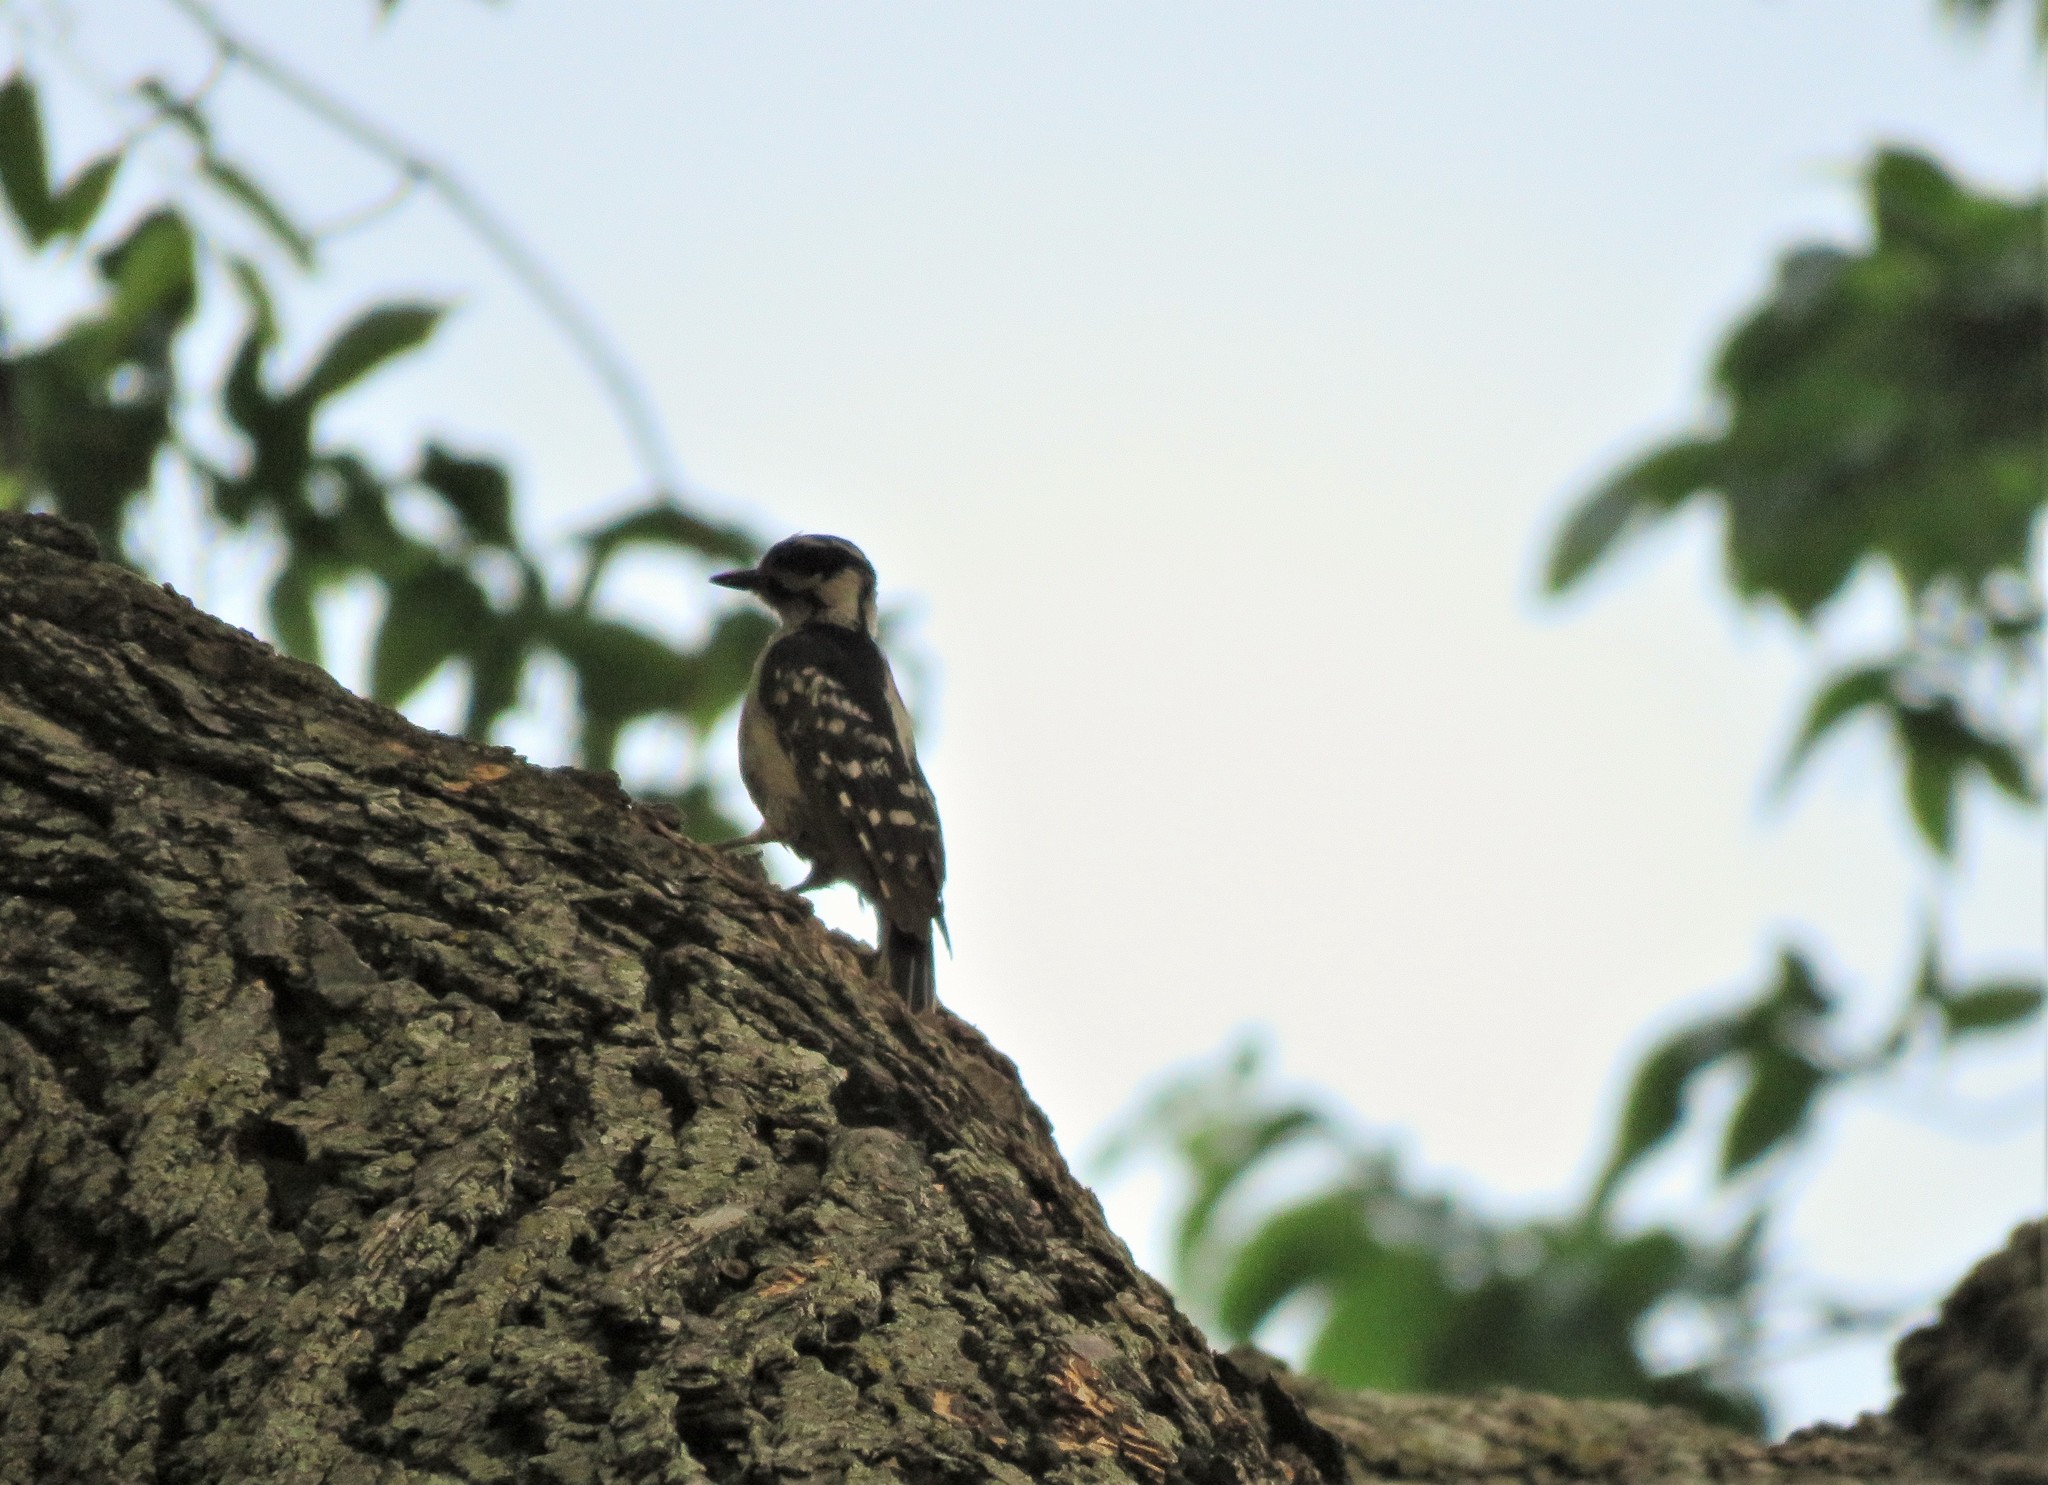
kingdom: Animalia
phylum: Chordata
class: Aves
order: Piciformes
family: Picidae
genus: Dryobates
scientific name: Dryobates pubescens
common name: Downy woodpecker
